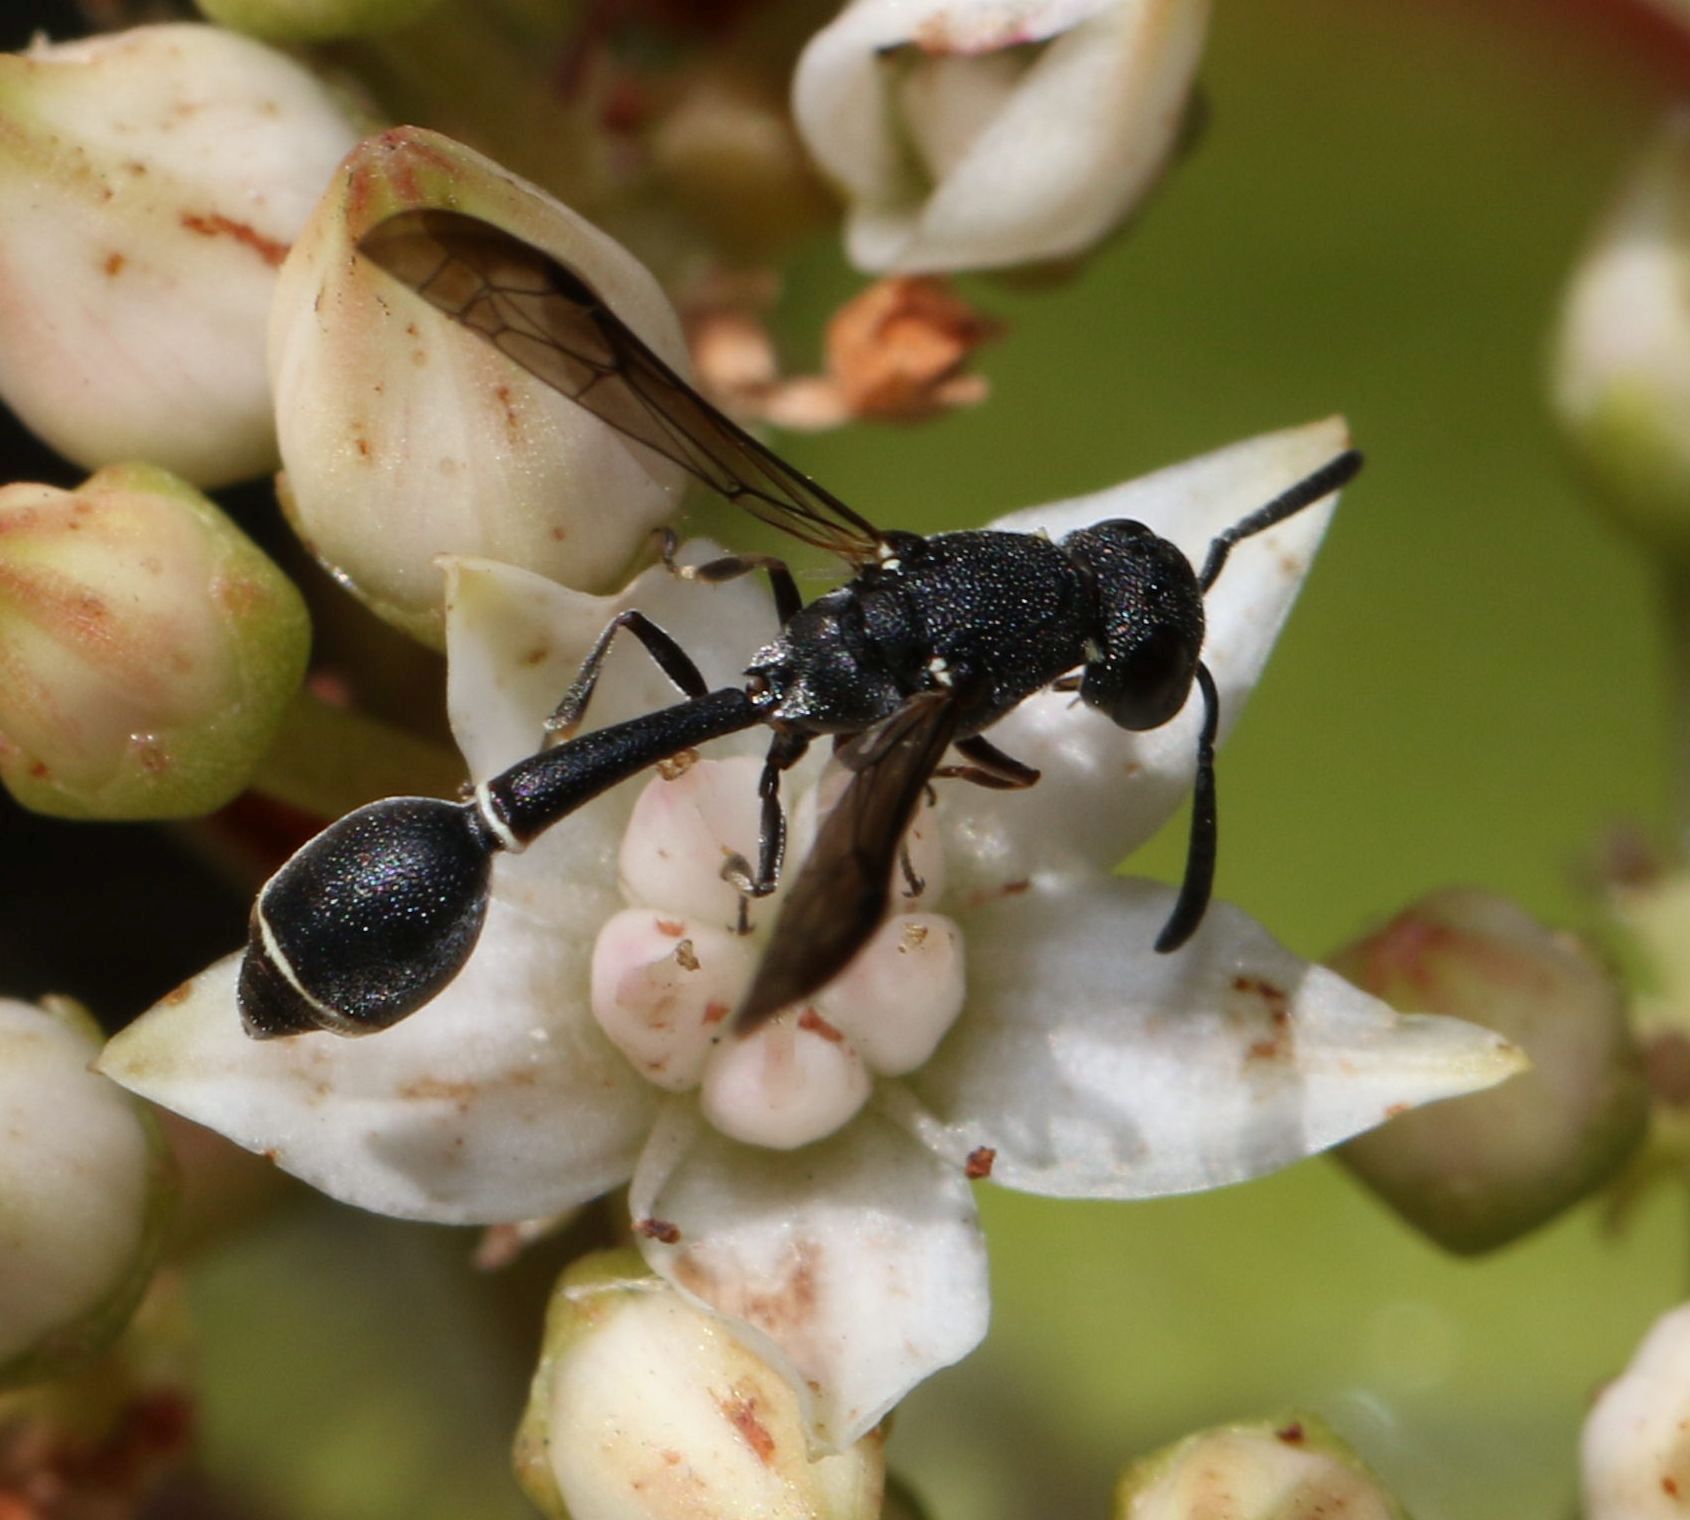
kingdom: Animalia
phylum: Arthropoda
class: Insecta
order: Hymenoptera
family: Eumenidae
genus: Micreumenes
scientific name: Micreumenes
